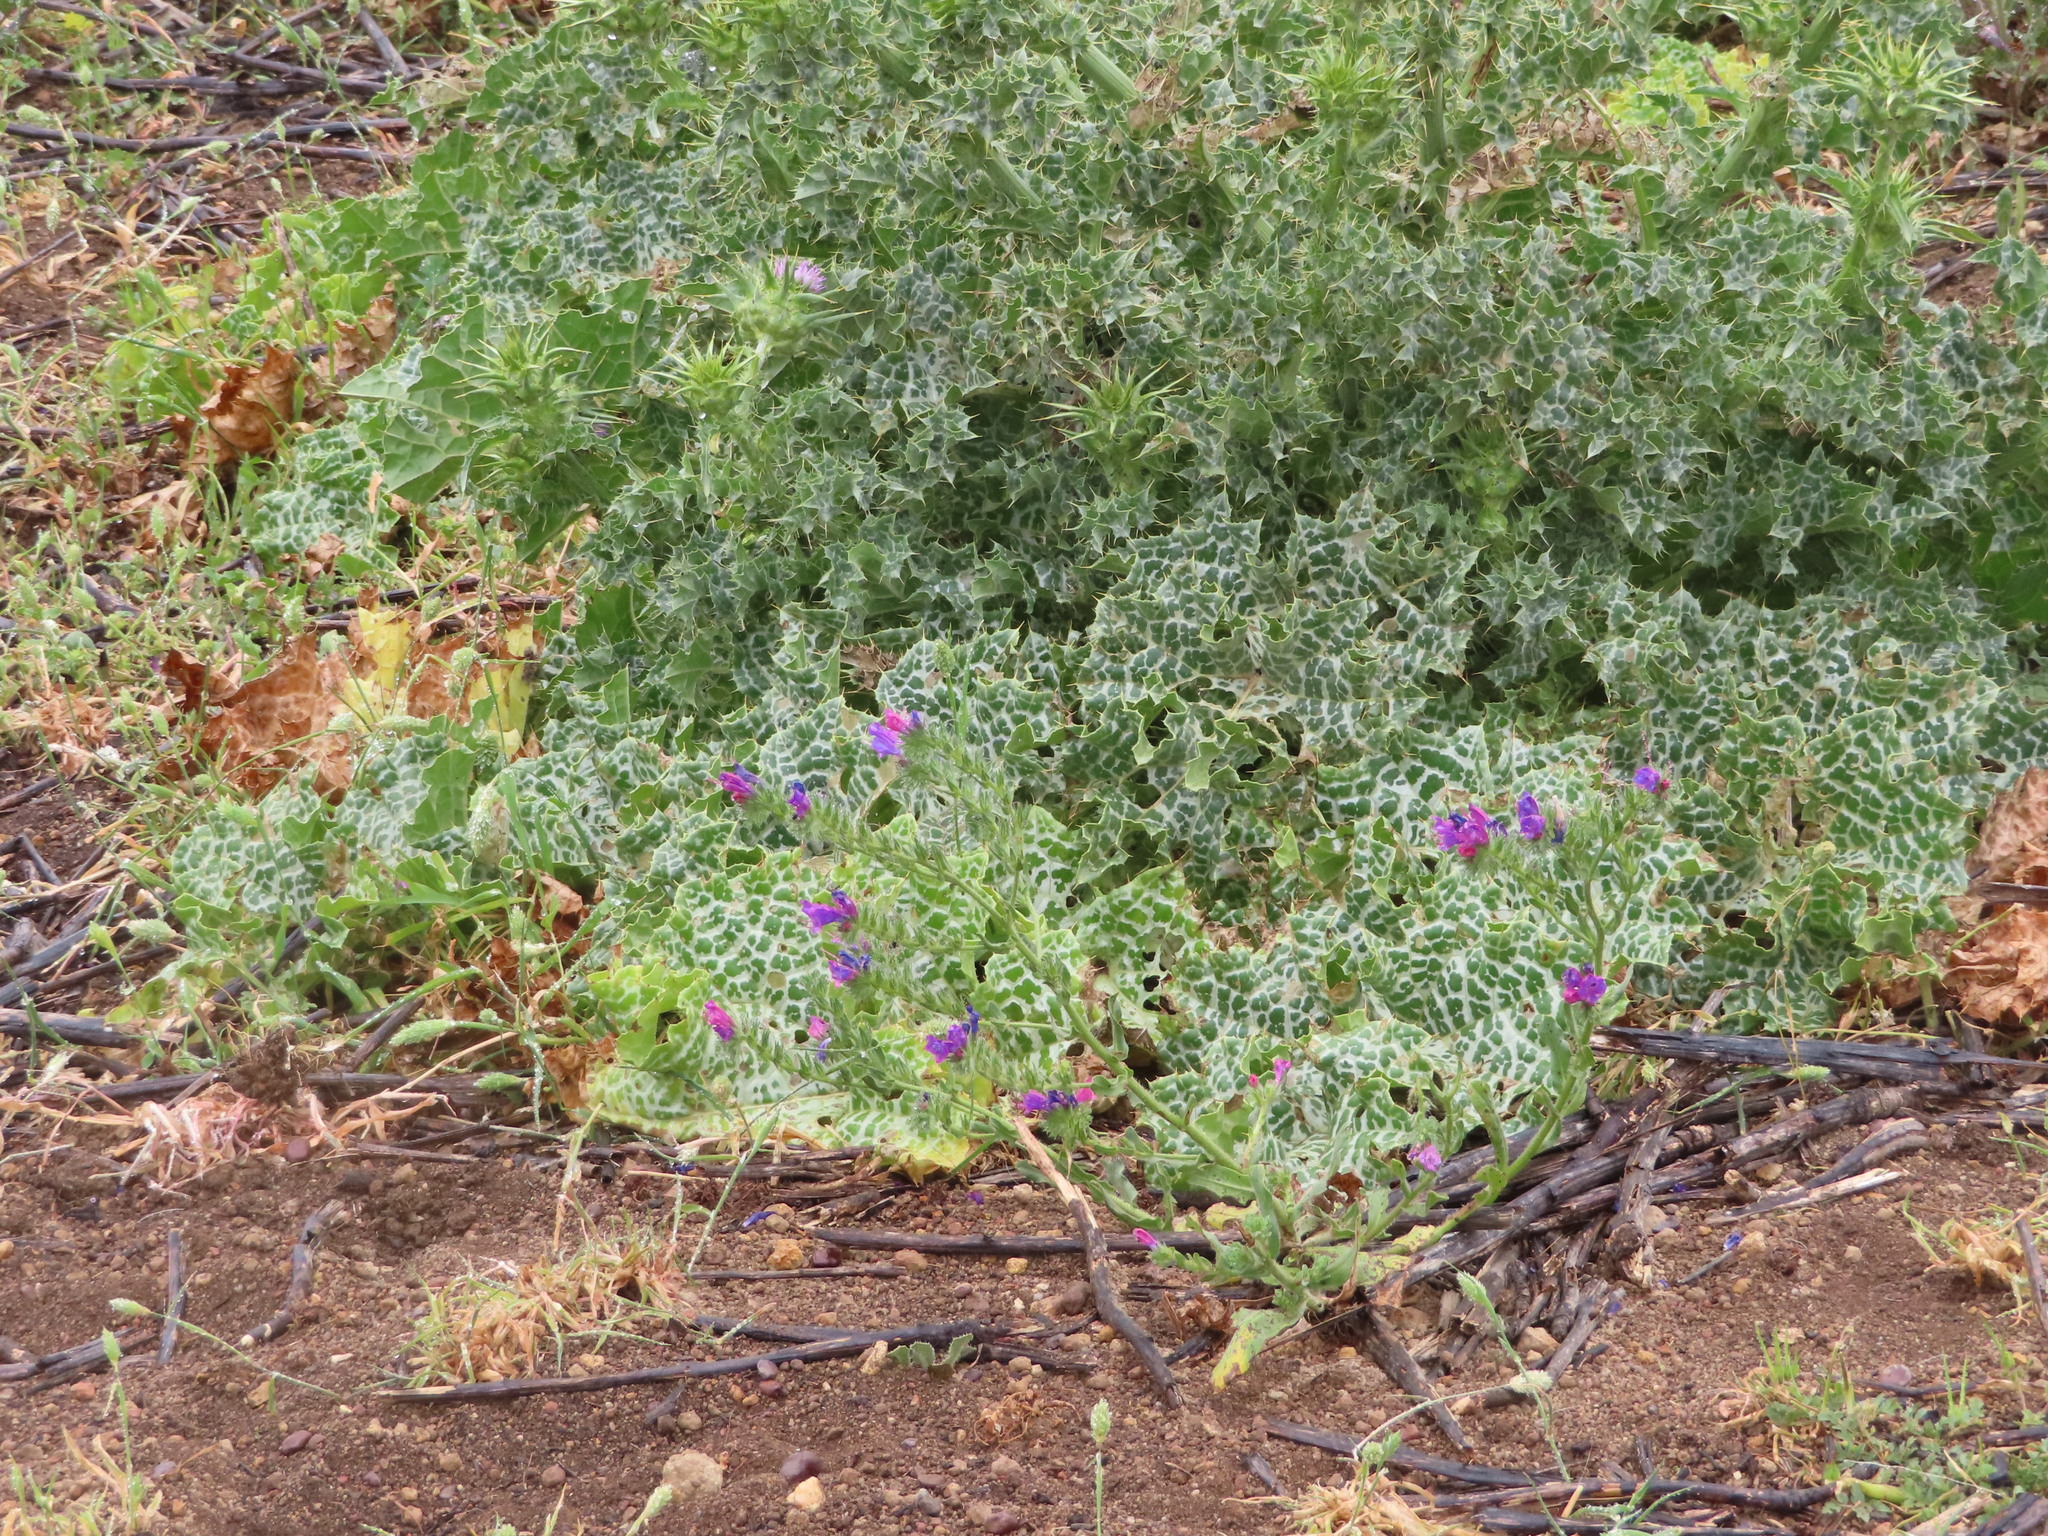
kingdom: Plantae
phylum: Tracheophyta
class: Magnoliopsida
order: Asterales
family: Asteraceae
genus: Silybum
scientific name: Silybum marianum
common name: Milk thistle
